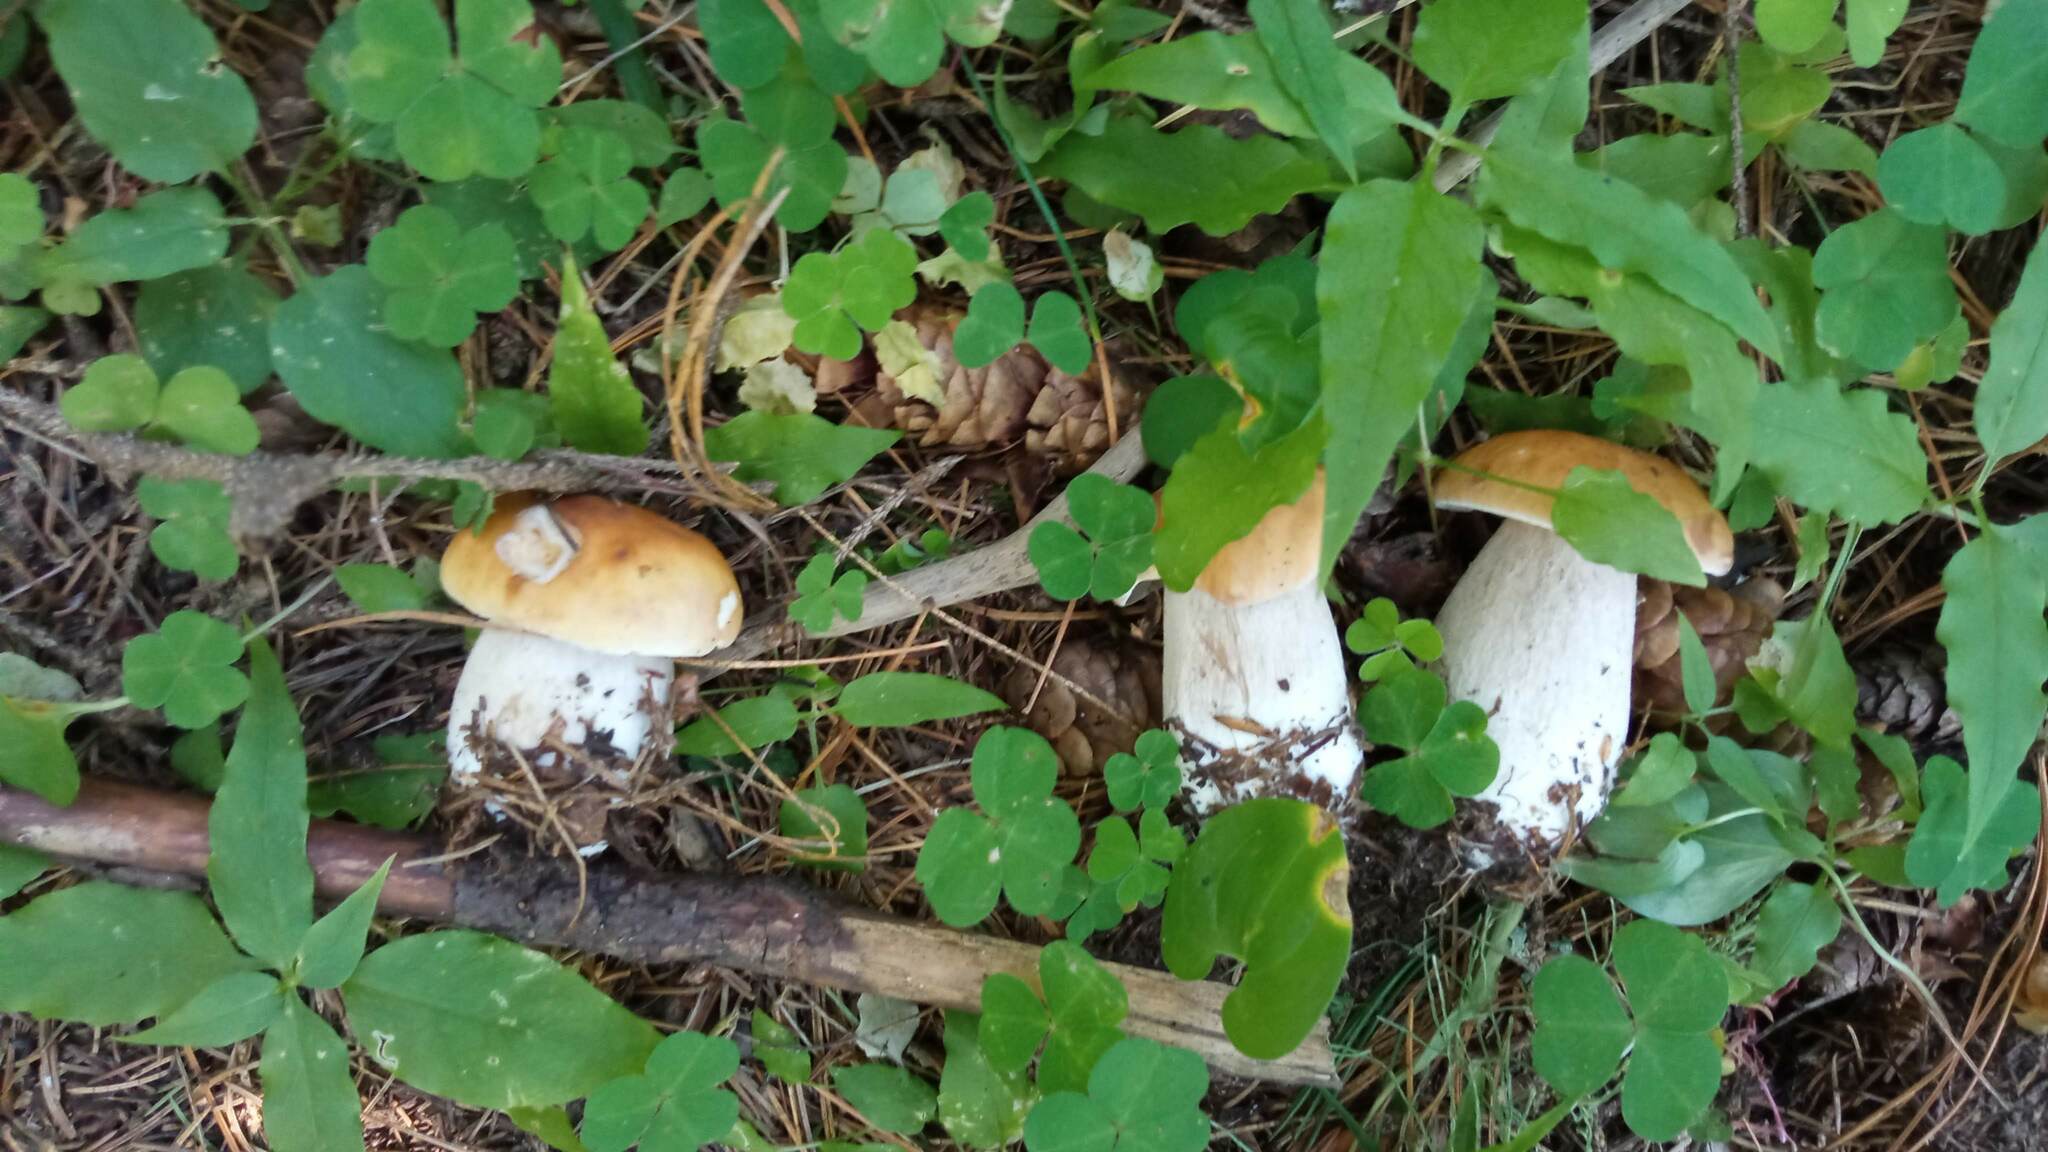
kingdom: Fungi
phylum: Basidiomycota
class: Agaricomycetes
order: Boletales
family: Boletaceae
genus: Boletus
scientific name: Boletus edulis
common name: Cep
